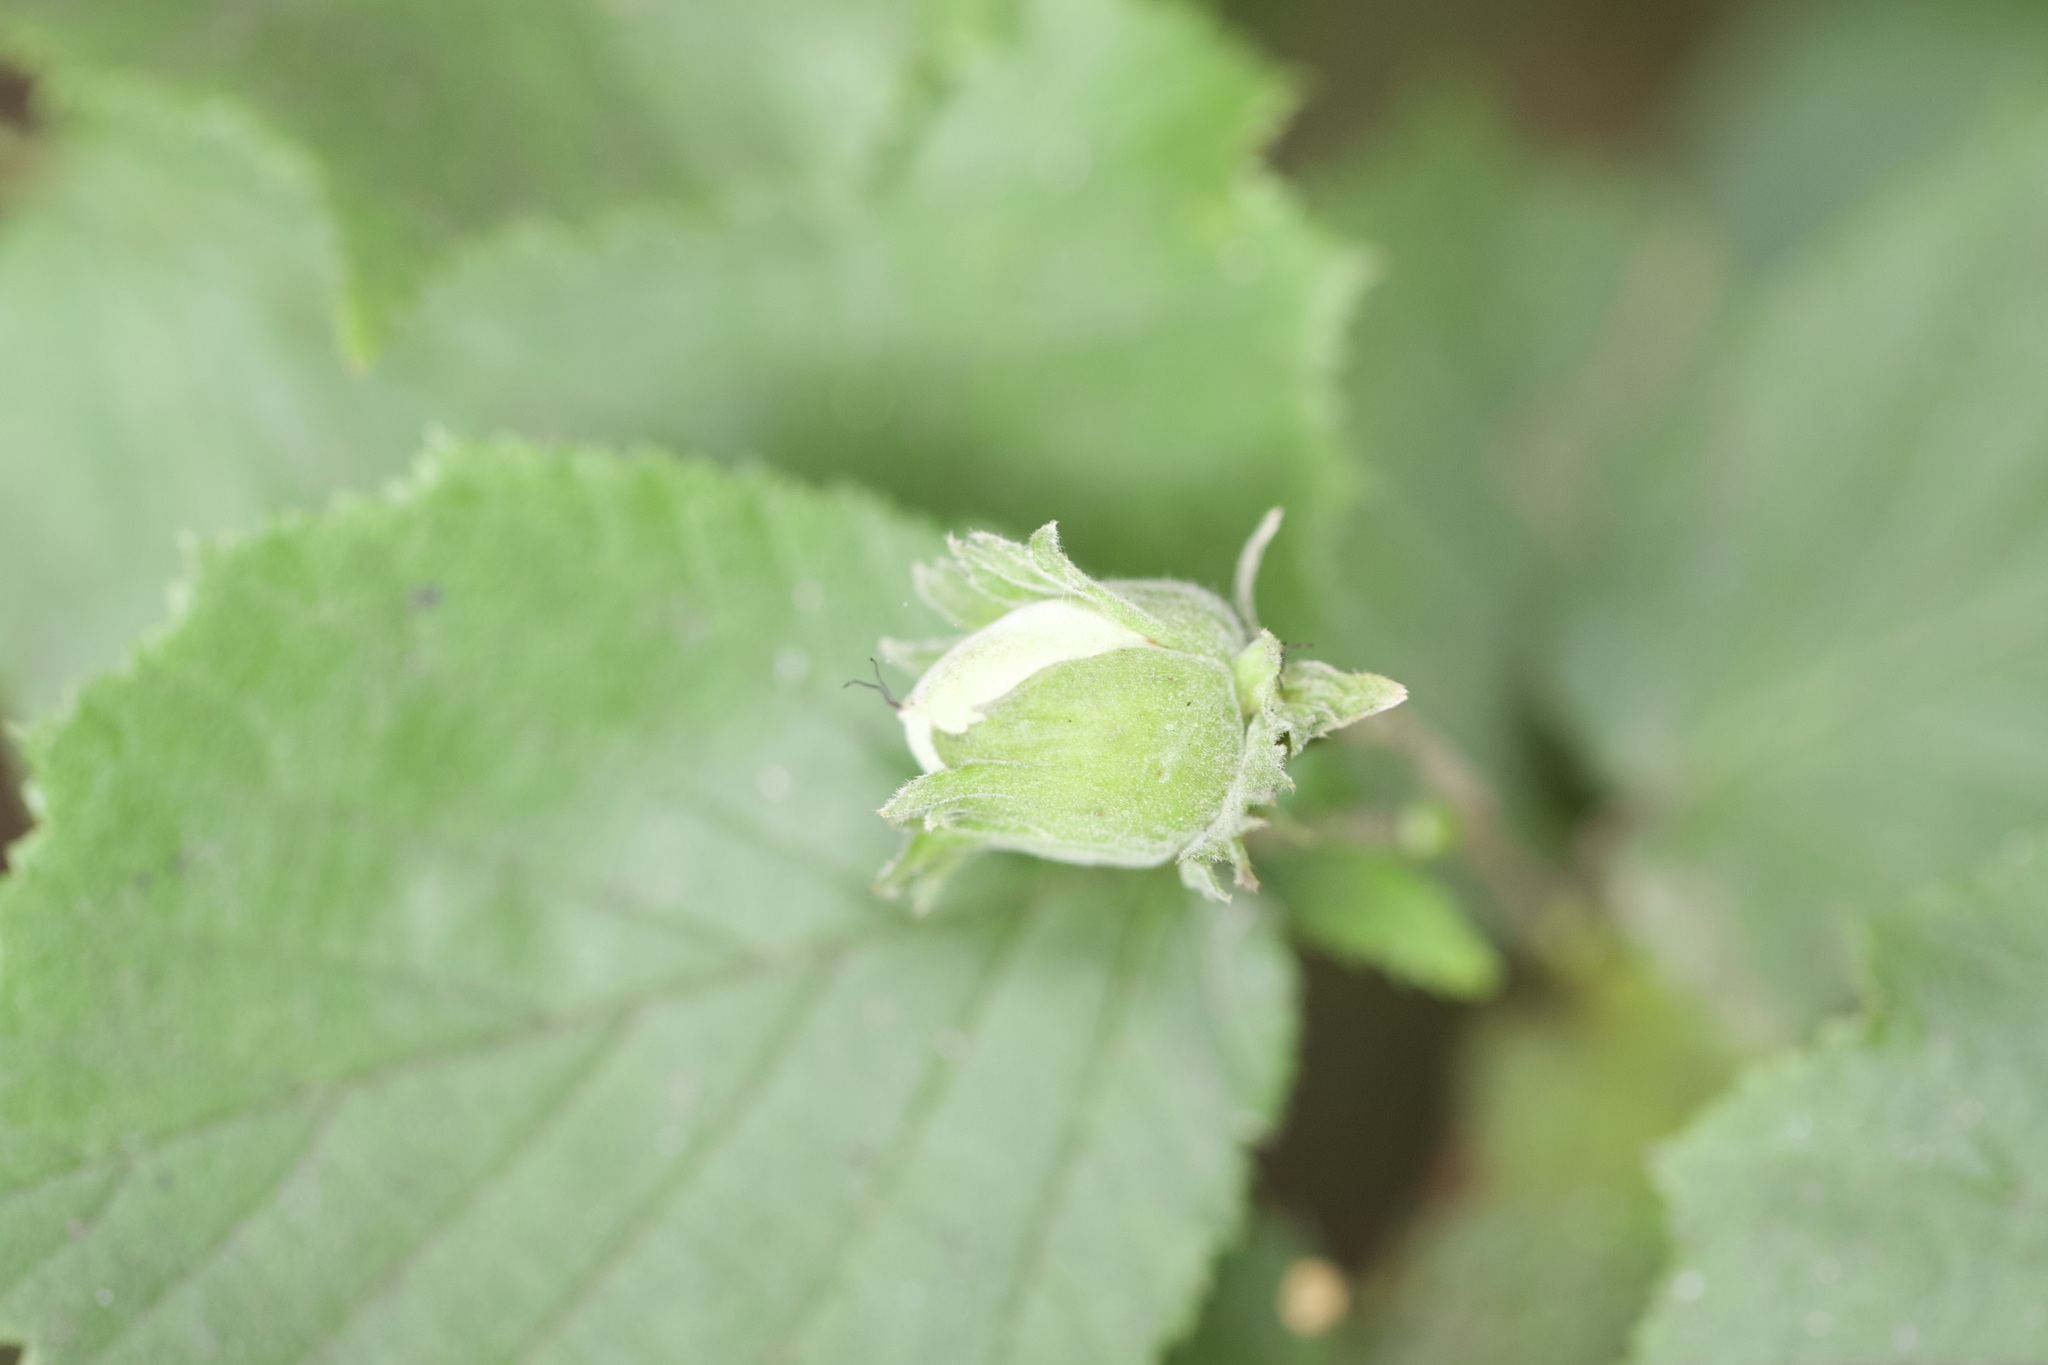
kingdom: Plantae
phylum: Tracheophyta
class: Magnoliopsida
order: Fagales
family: Betulaceae
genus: Corylus
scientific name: Corylus avellana
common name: European hazel
